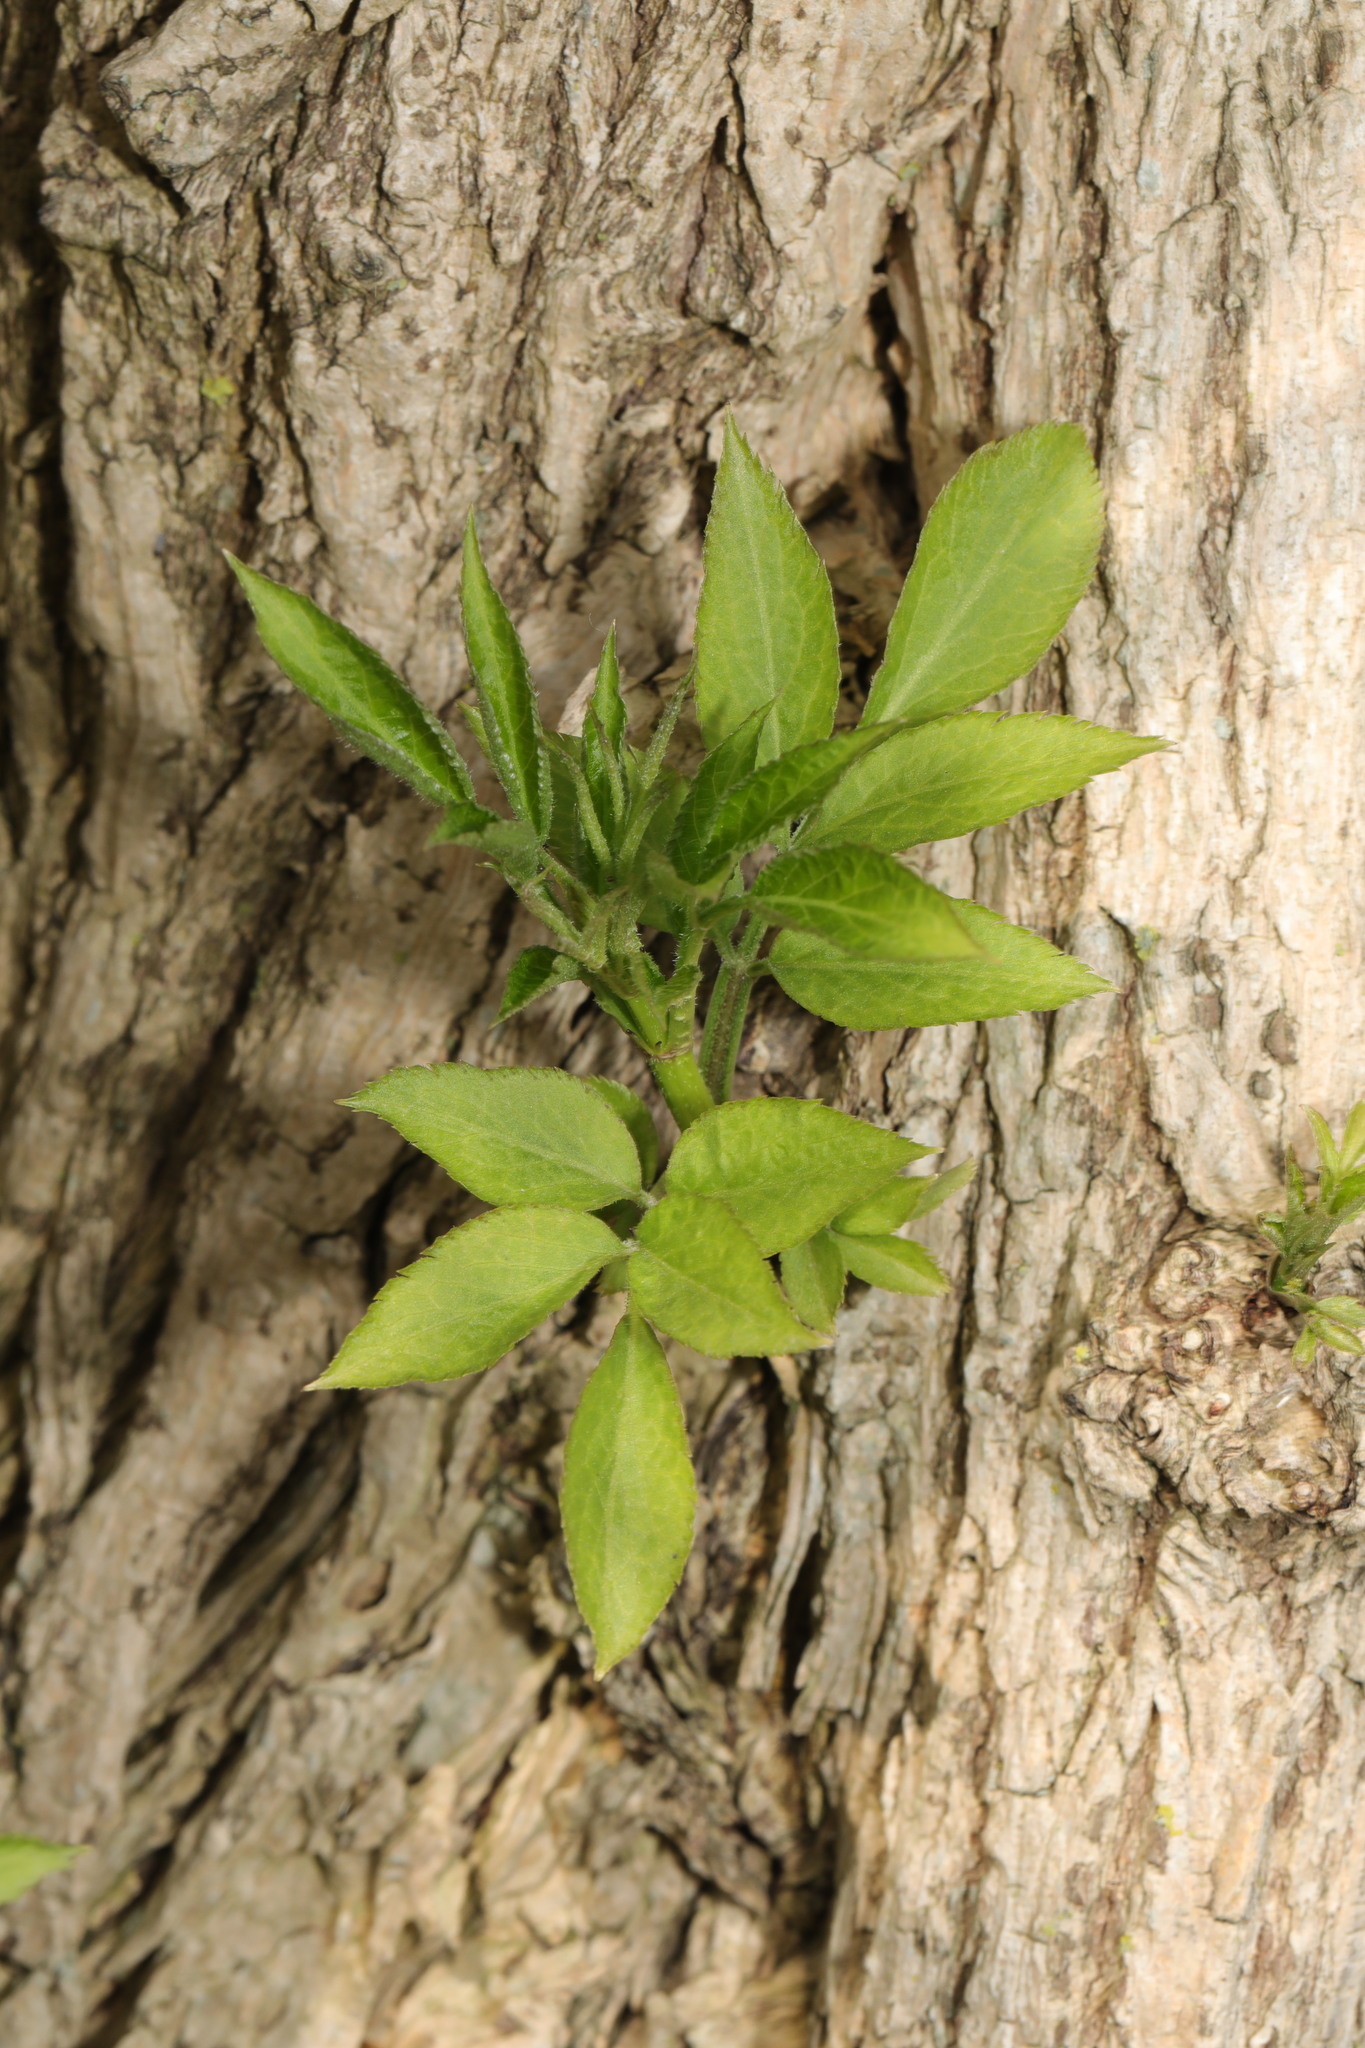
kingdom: Plantae
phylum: Tracheophyta
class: Magnoliopsida
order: Dipsacales
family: Viburnaceae
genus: Sambucus
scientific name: Sambucus nigra
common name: Elder
